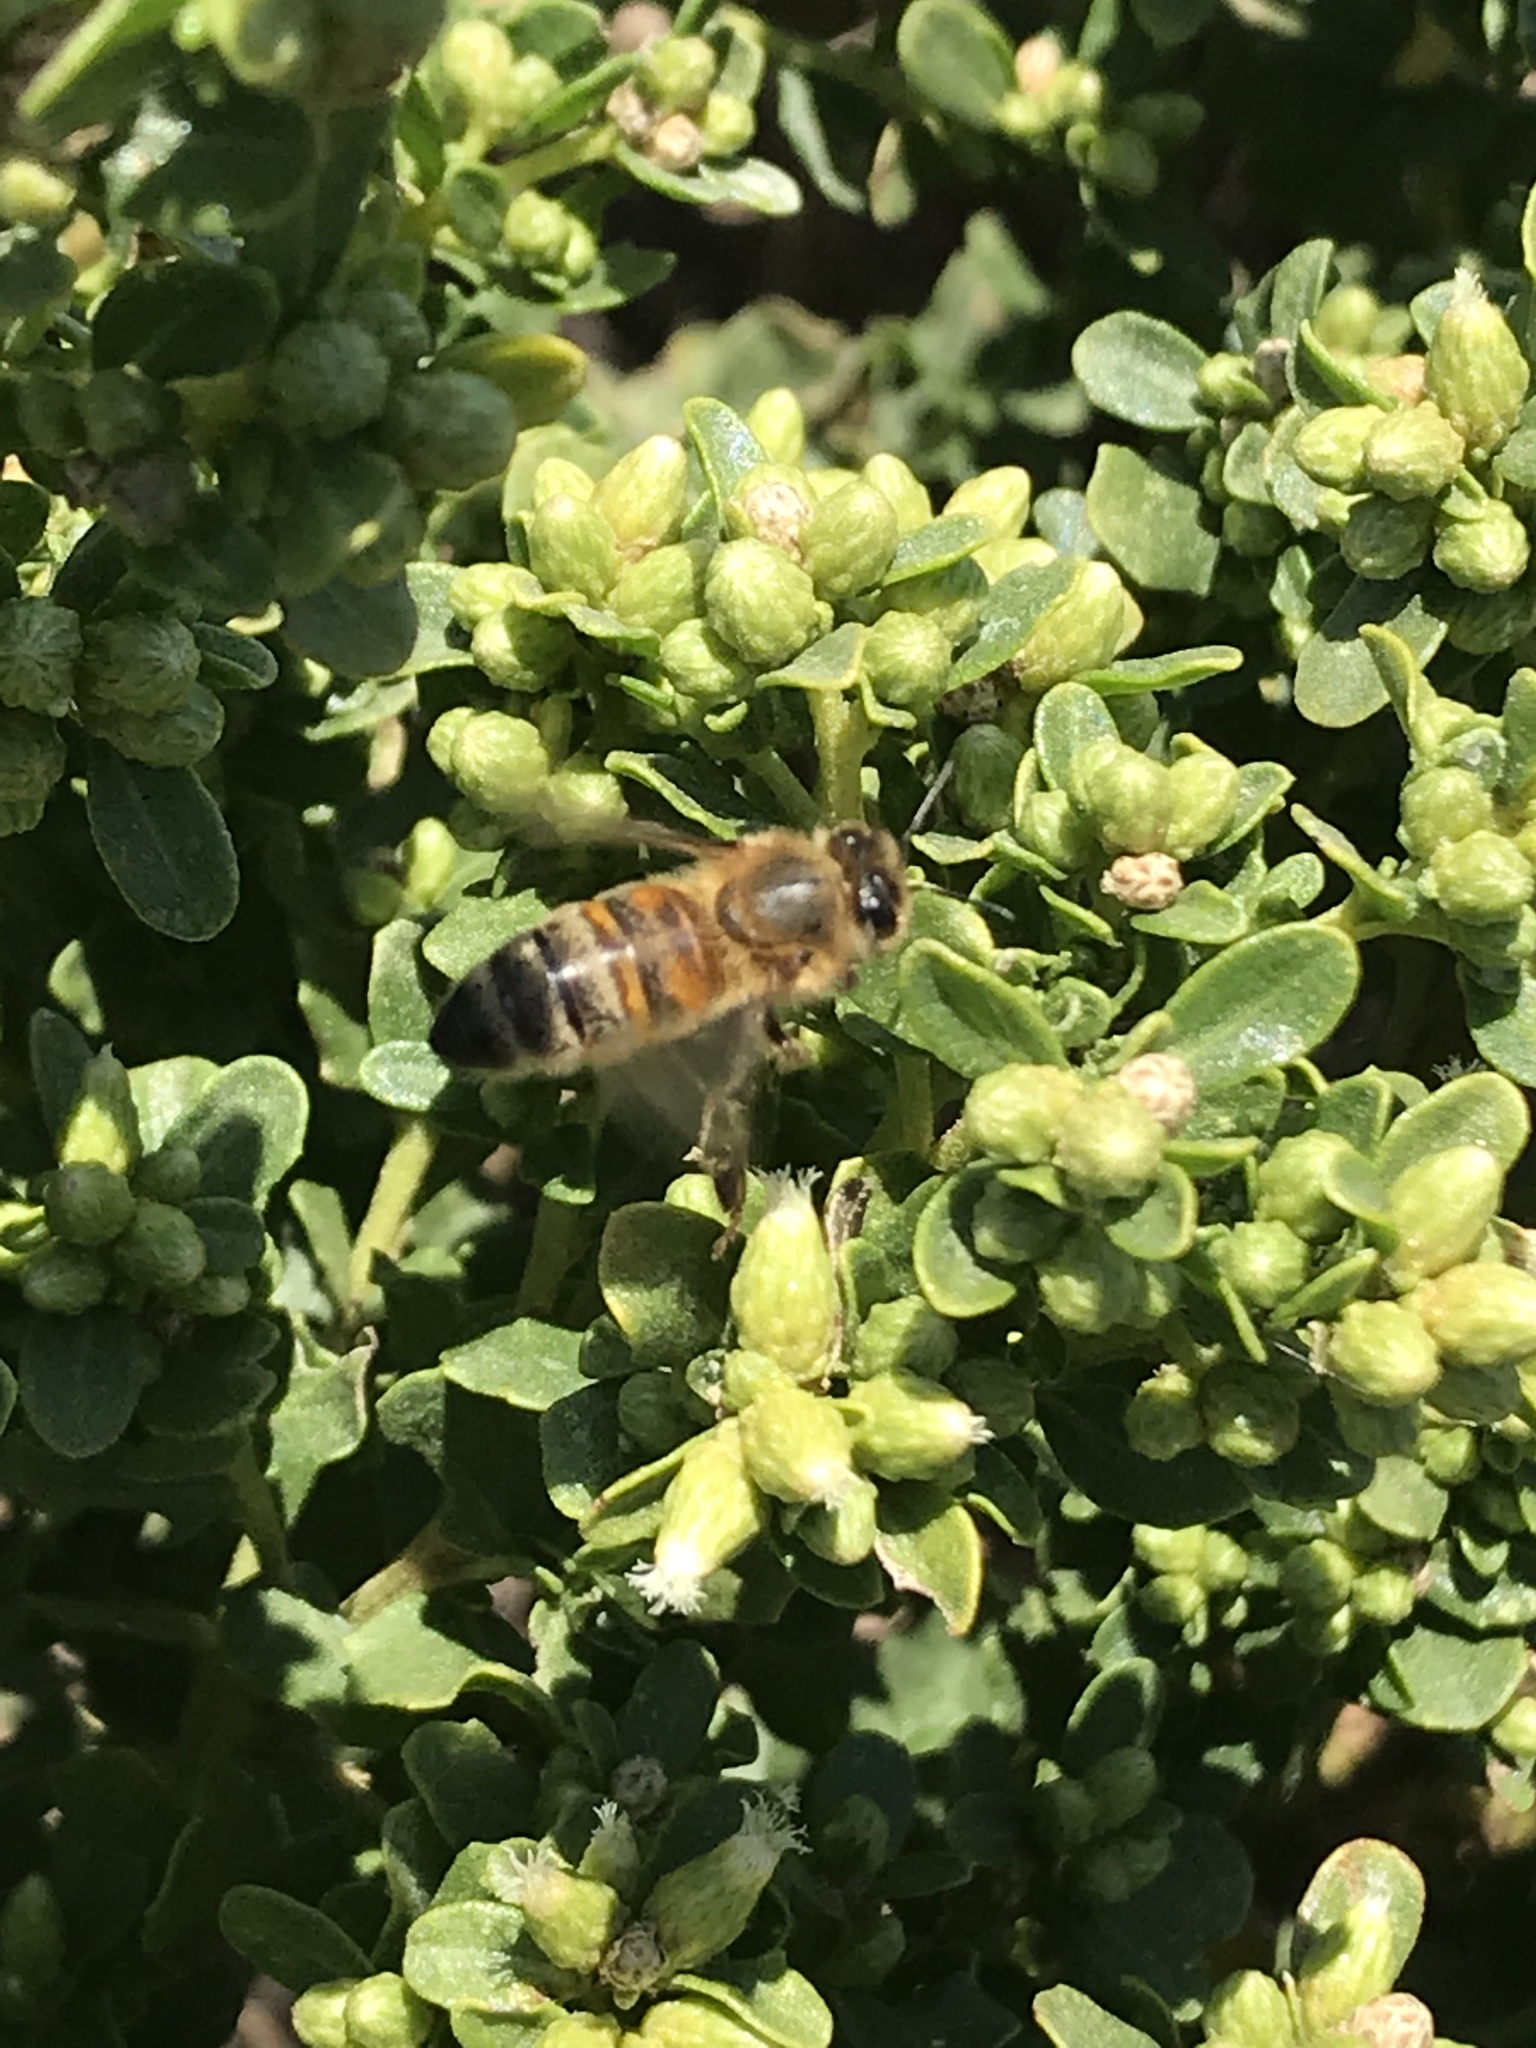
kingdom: Animalia
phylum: Arthropoda
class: Insecta
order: Hymenoptera
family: Apidae
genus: Apis
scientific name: Apis mellifera
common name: Honey bee
